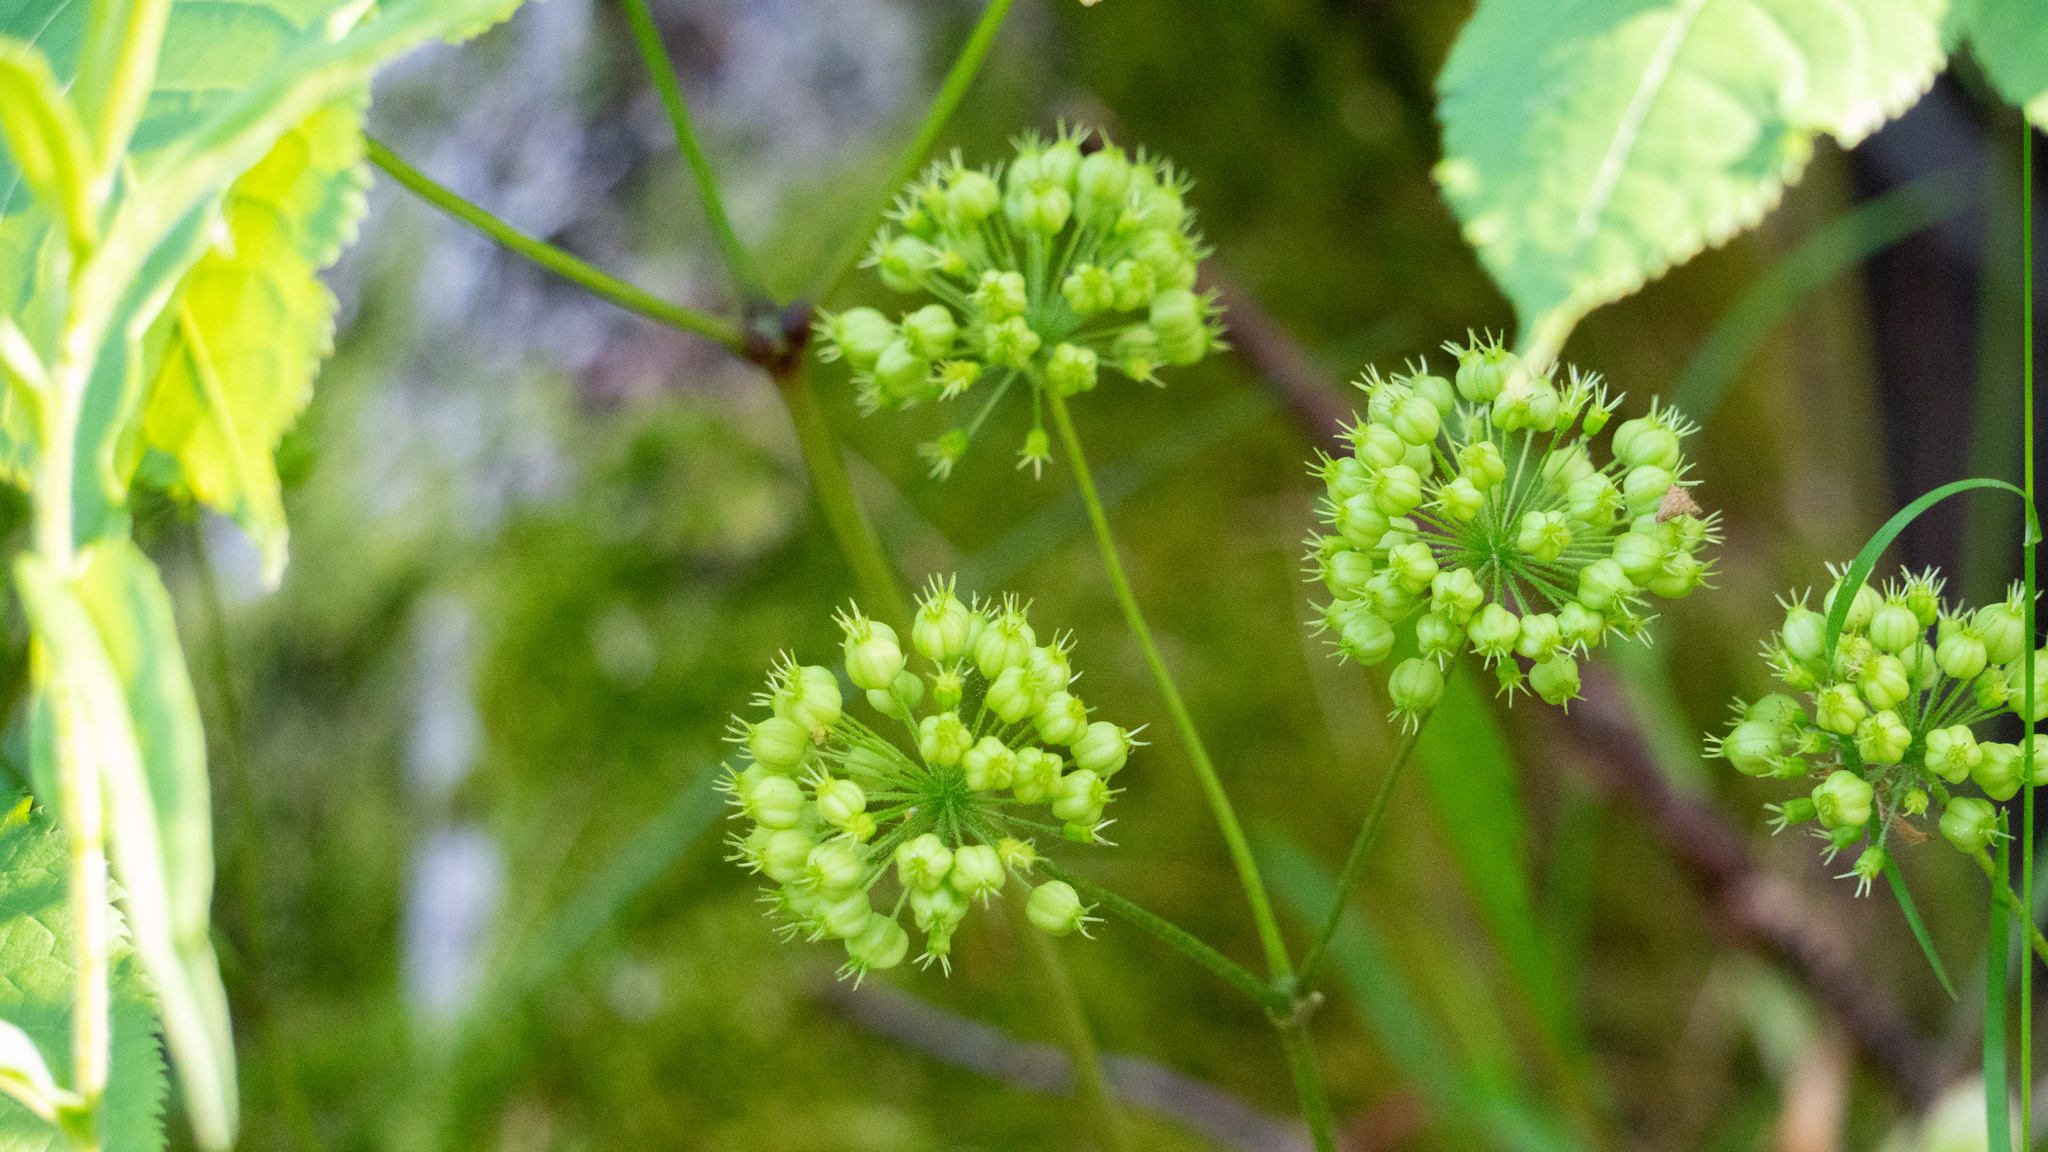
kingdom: Plantae
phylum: Tracheophyta
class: Magnoliopsida
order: Apiales
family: Araliaceae
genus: Aralia
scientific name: Aralia nudicaulis
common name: Wild sarsaparilla
